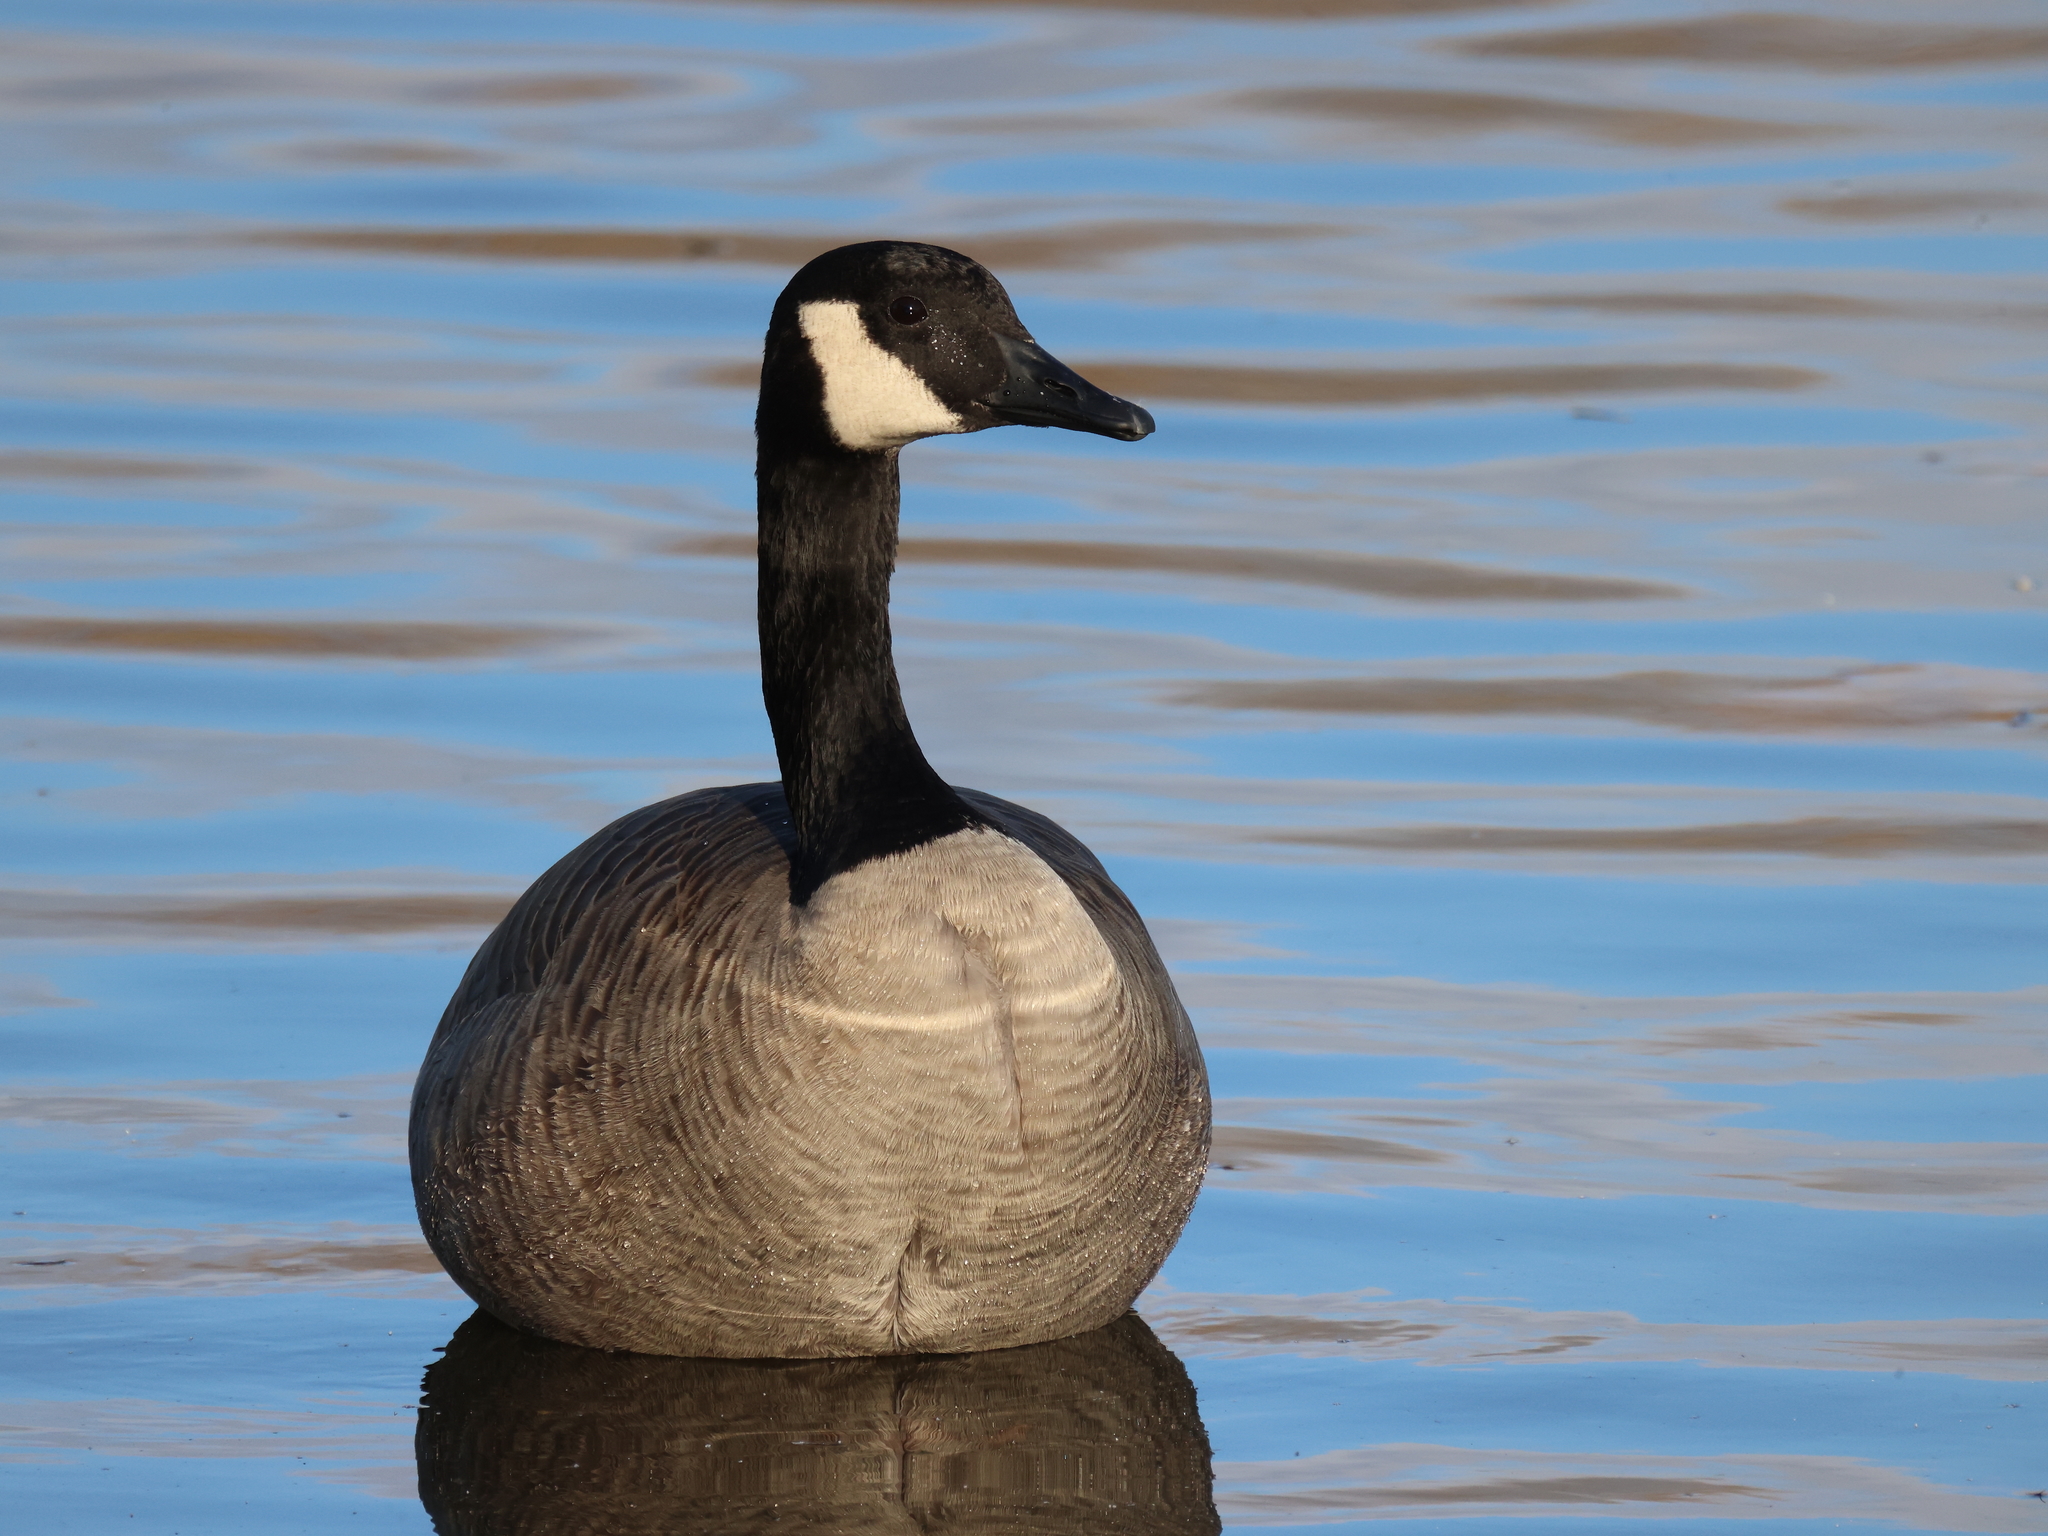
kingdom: Animalia
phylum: Chordata
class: Aves
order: Anseriformes
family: Anatidae
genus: Branta
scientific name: Branta canadensis
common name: Canada goose
